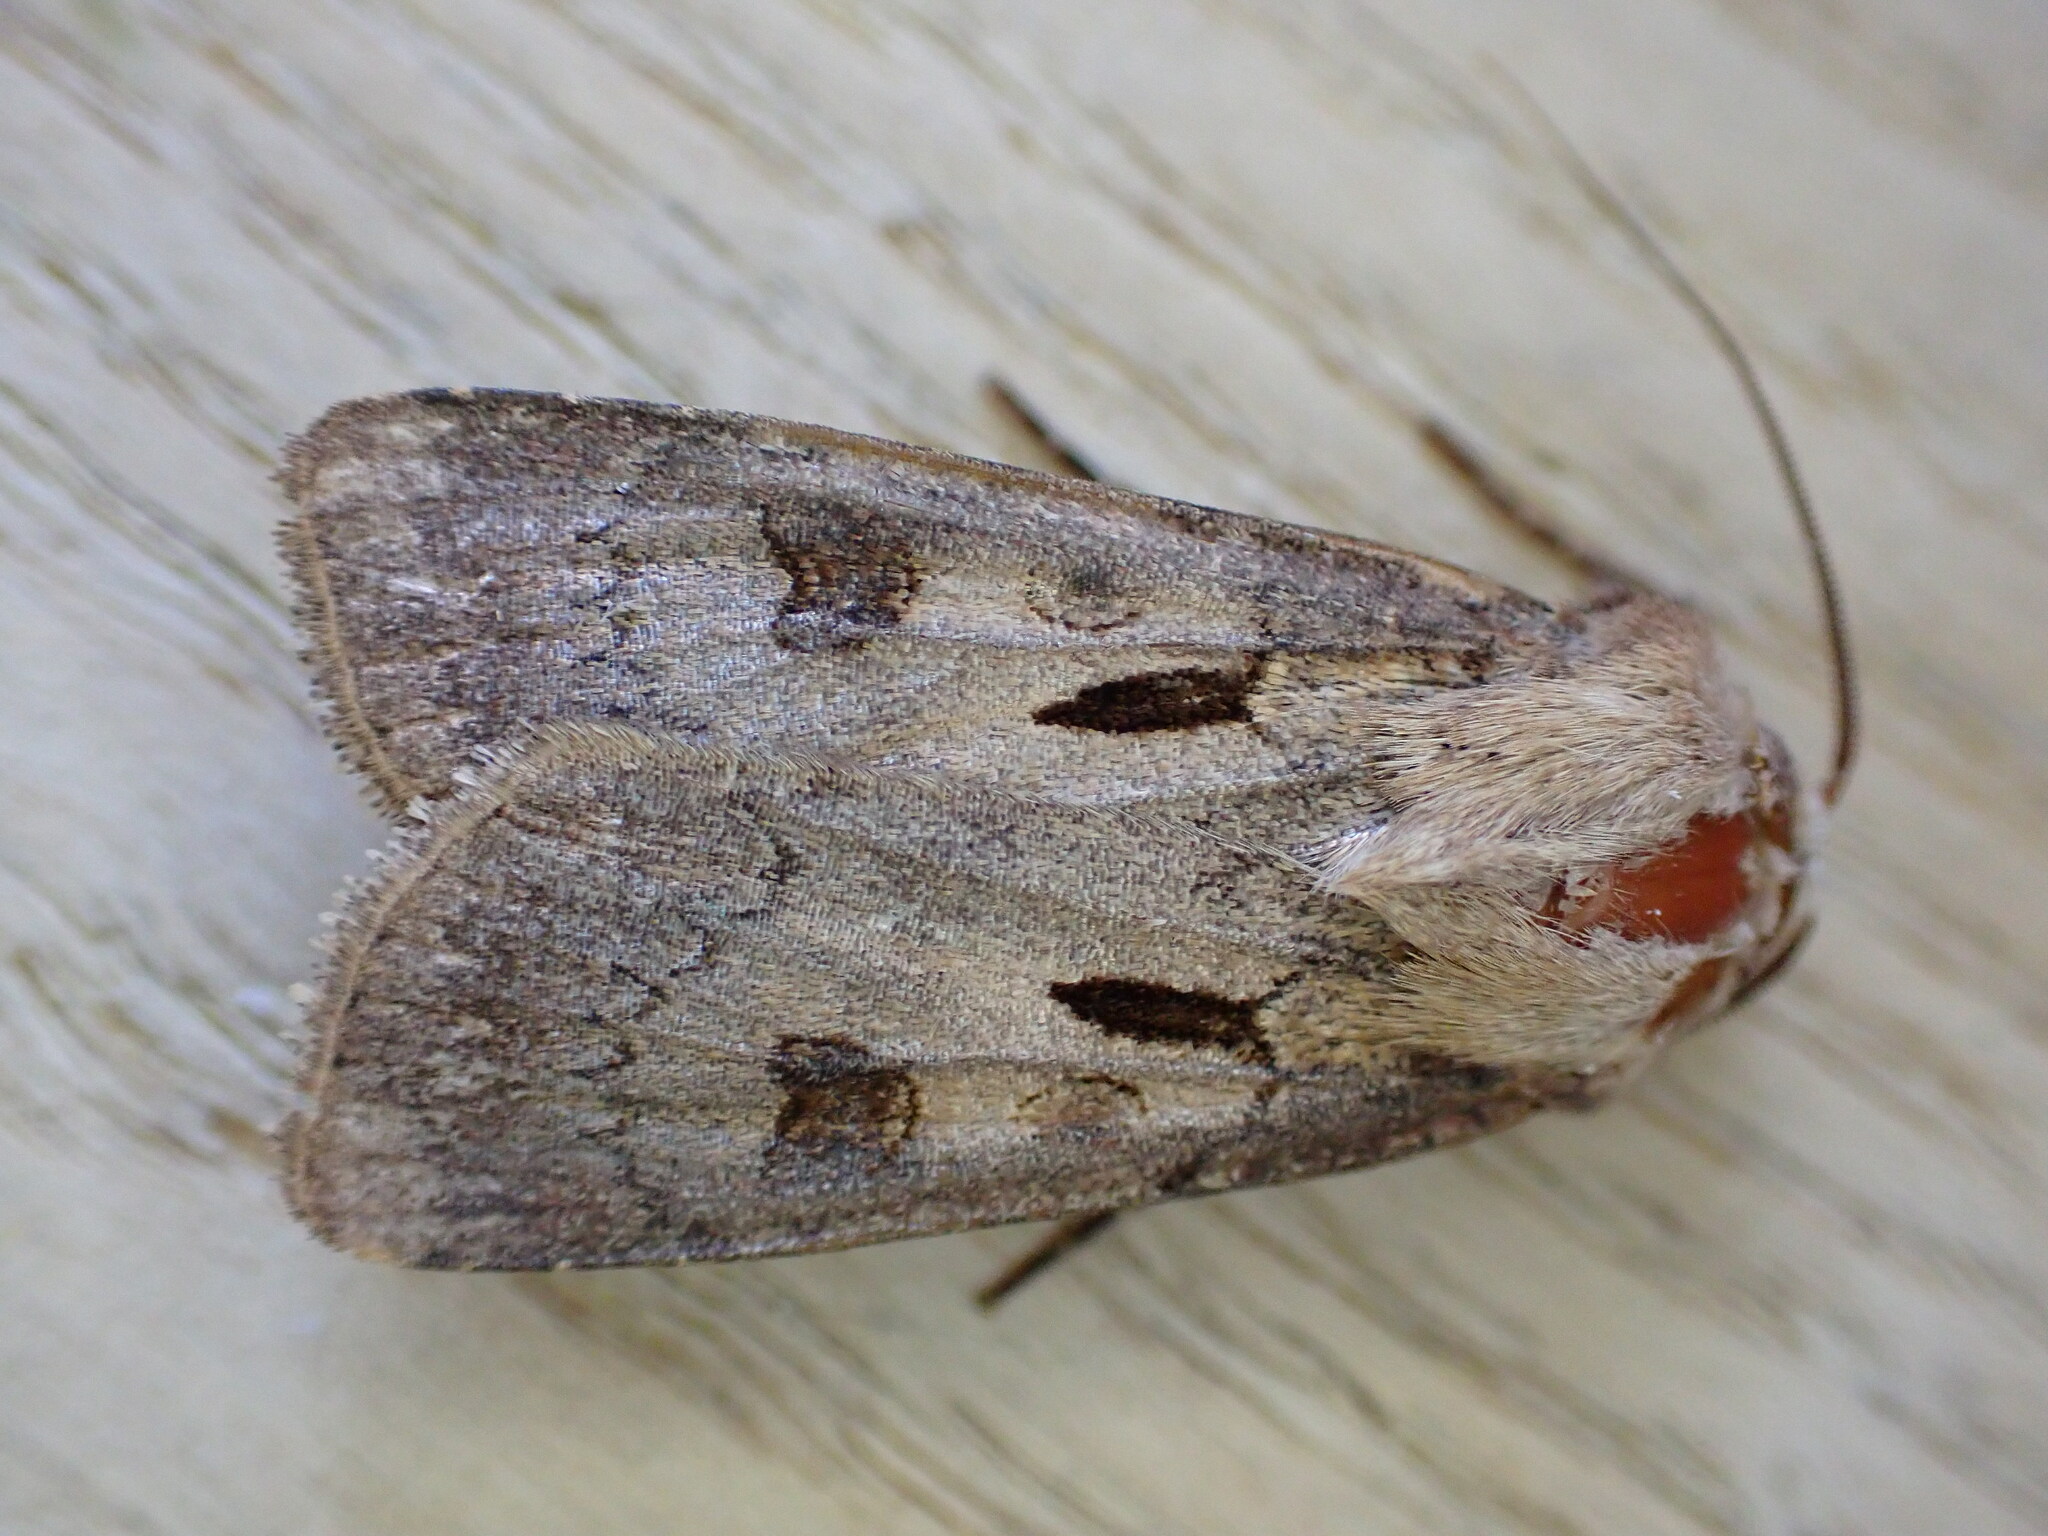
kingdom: Animalia
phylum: Arthropoda
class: Insecta
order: Lepidoptera
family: Noctuidae
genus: Agrotis
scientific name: Agrotis exclamationis
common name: Heart and dart
